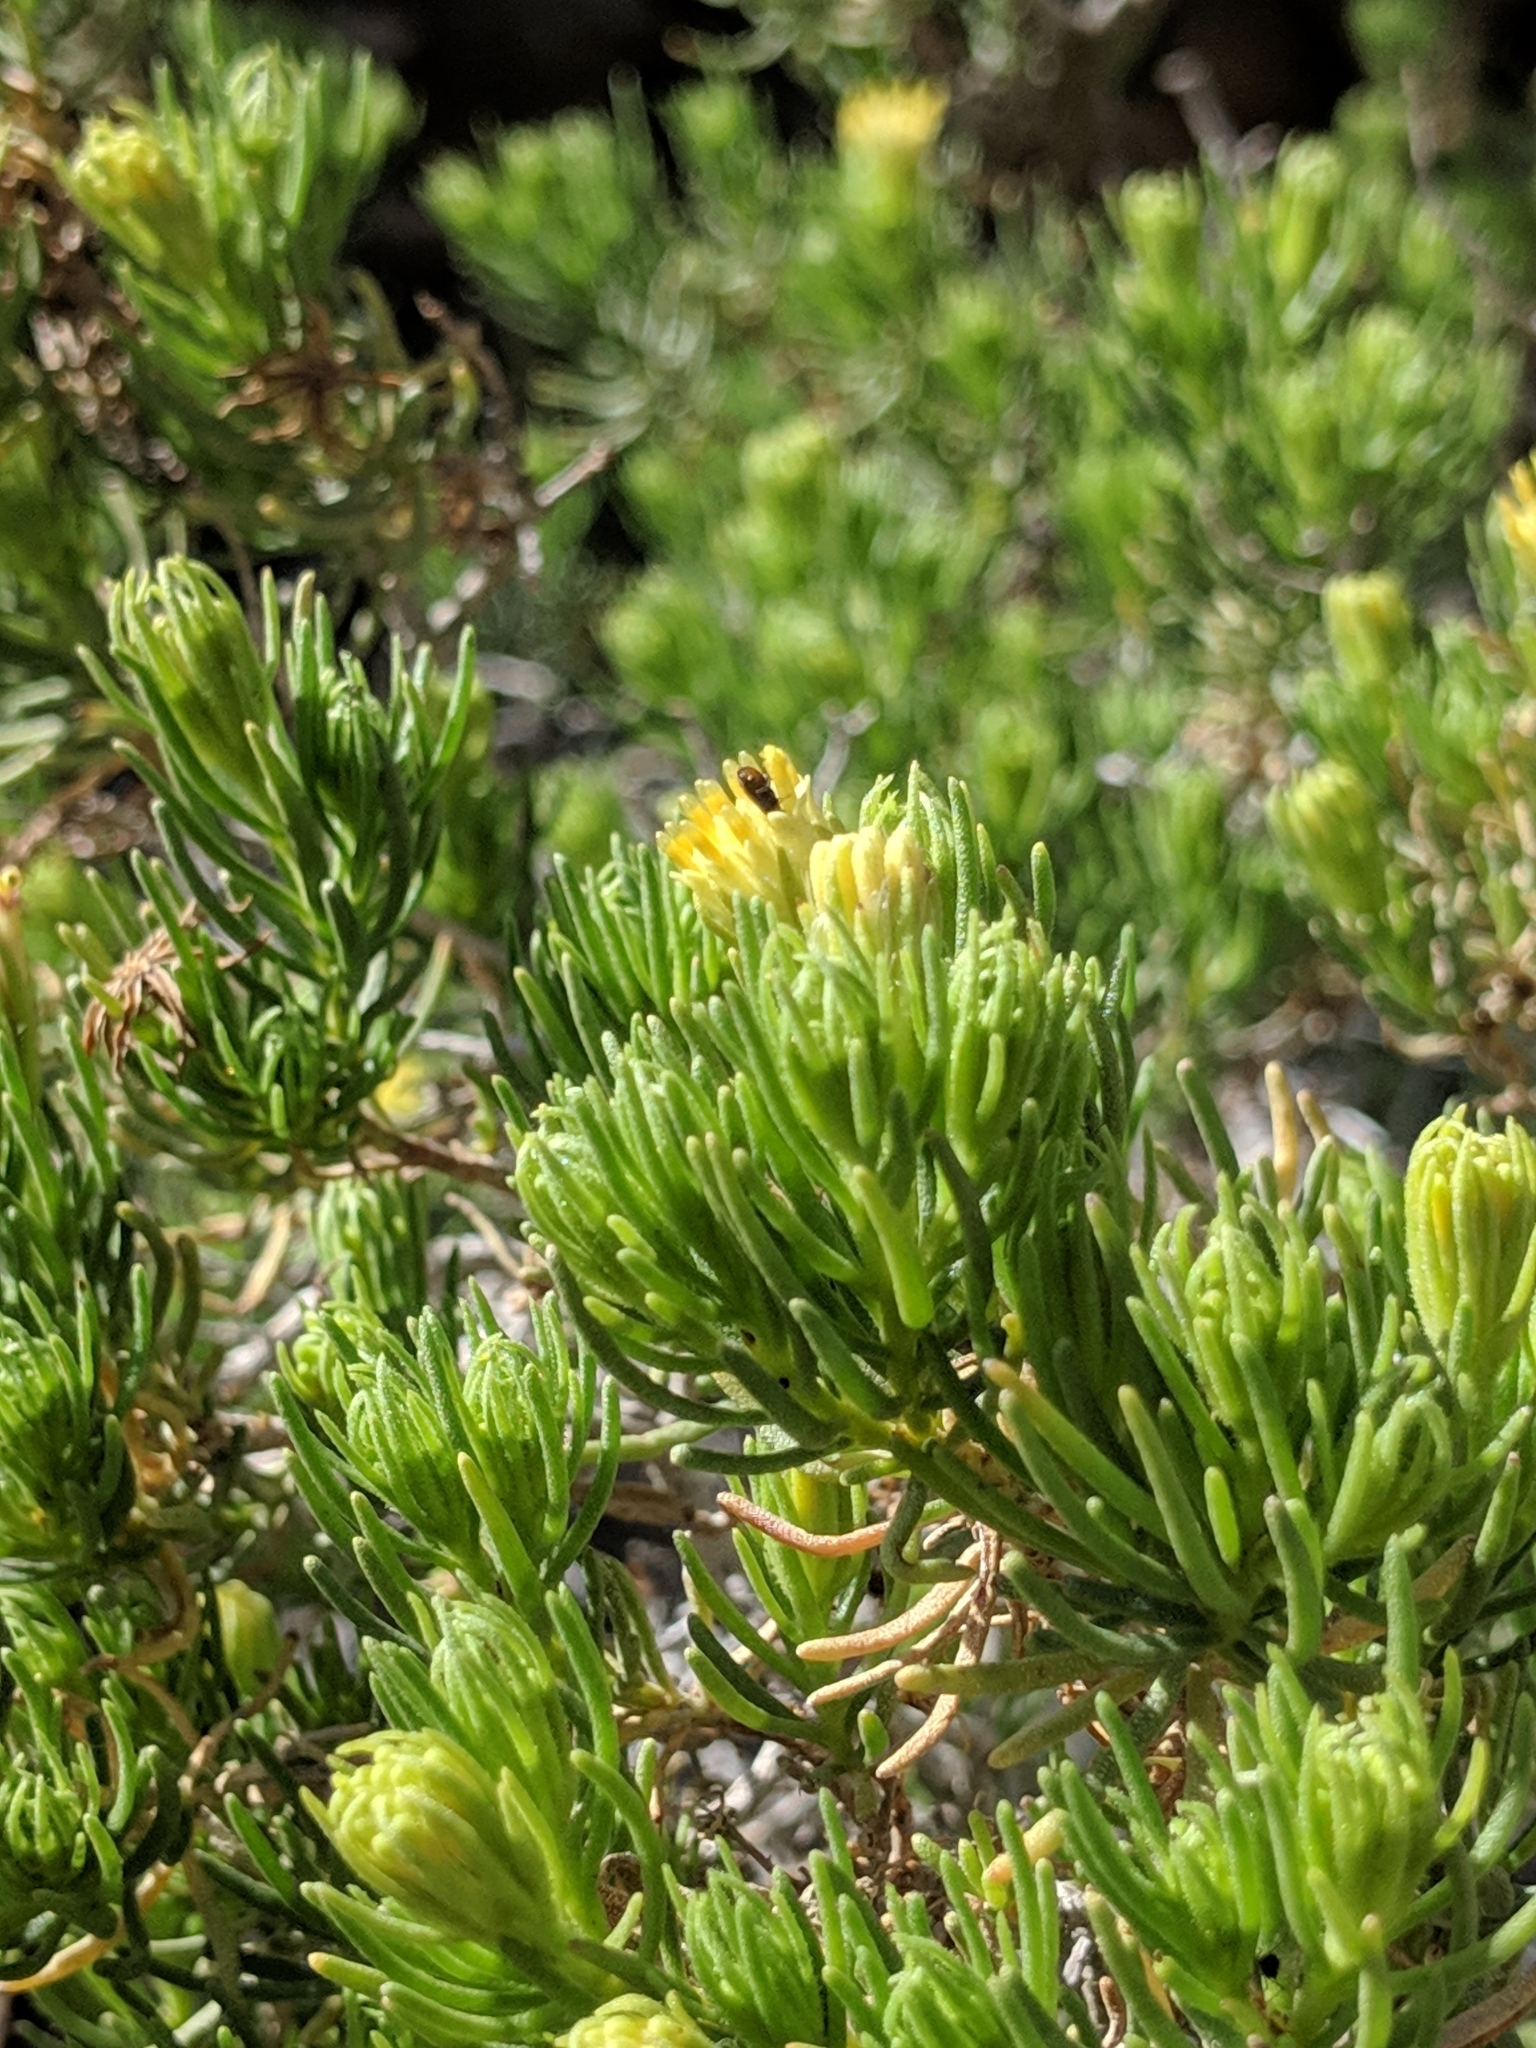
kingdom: Plantae
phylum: Tracheophyta
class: Magnoliopsida
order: Asterales
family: Asteraceae
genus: Peucephyllum
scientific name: Peucephyllum schottii
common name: Pygmy-cedar
